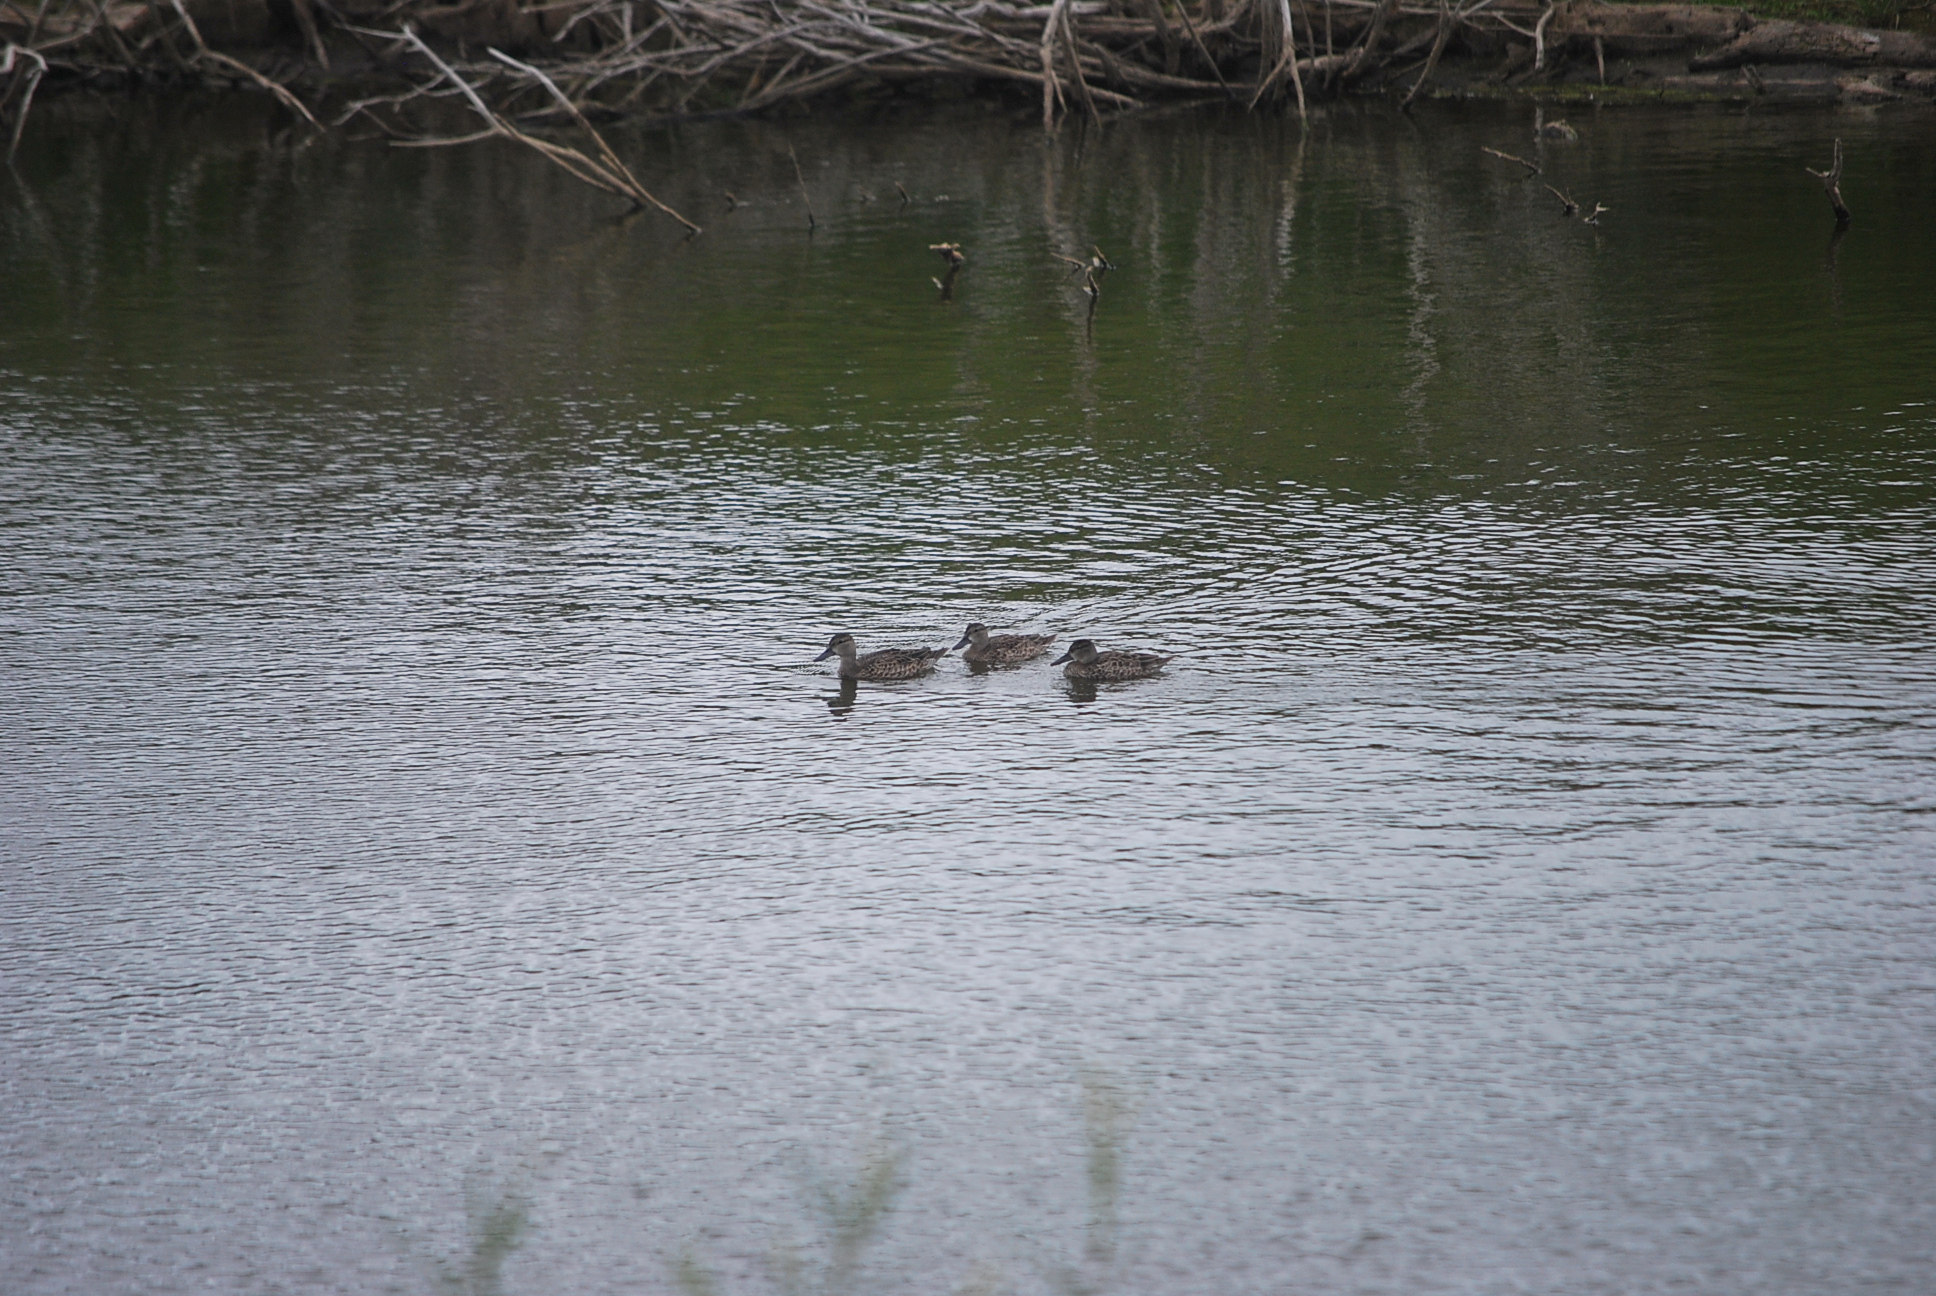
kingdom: Animalia
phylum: Chordata
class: Aves
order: Anseriformes
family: Anatidae
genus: Spatula
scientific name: Spatula discors
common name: Blue-winged teal
